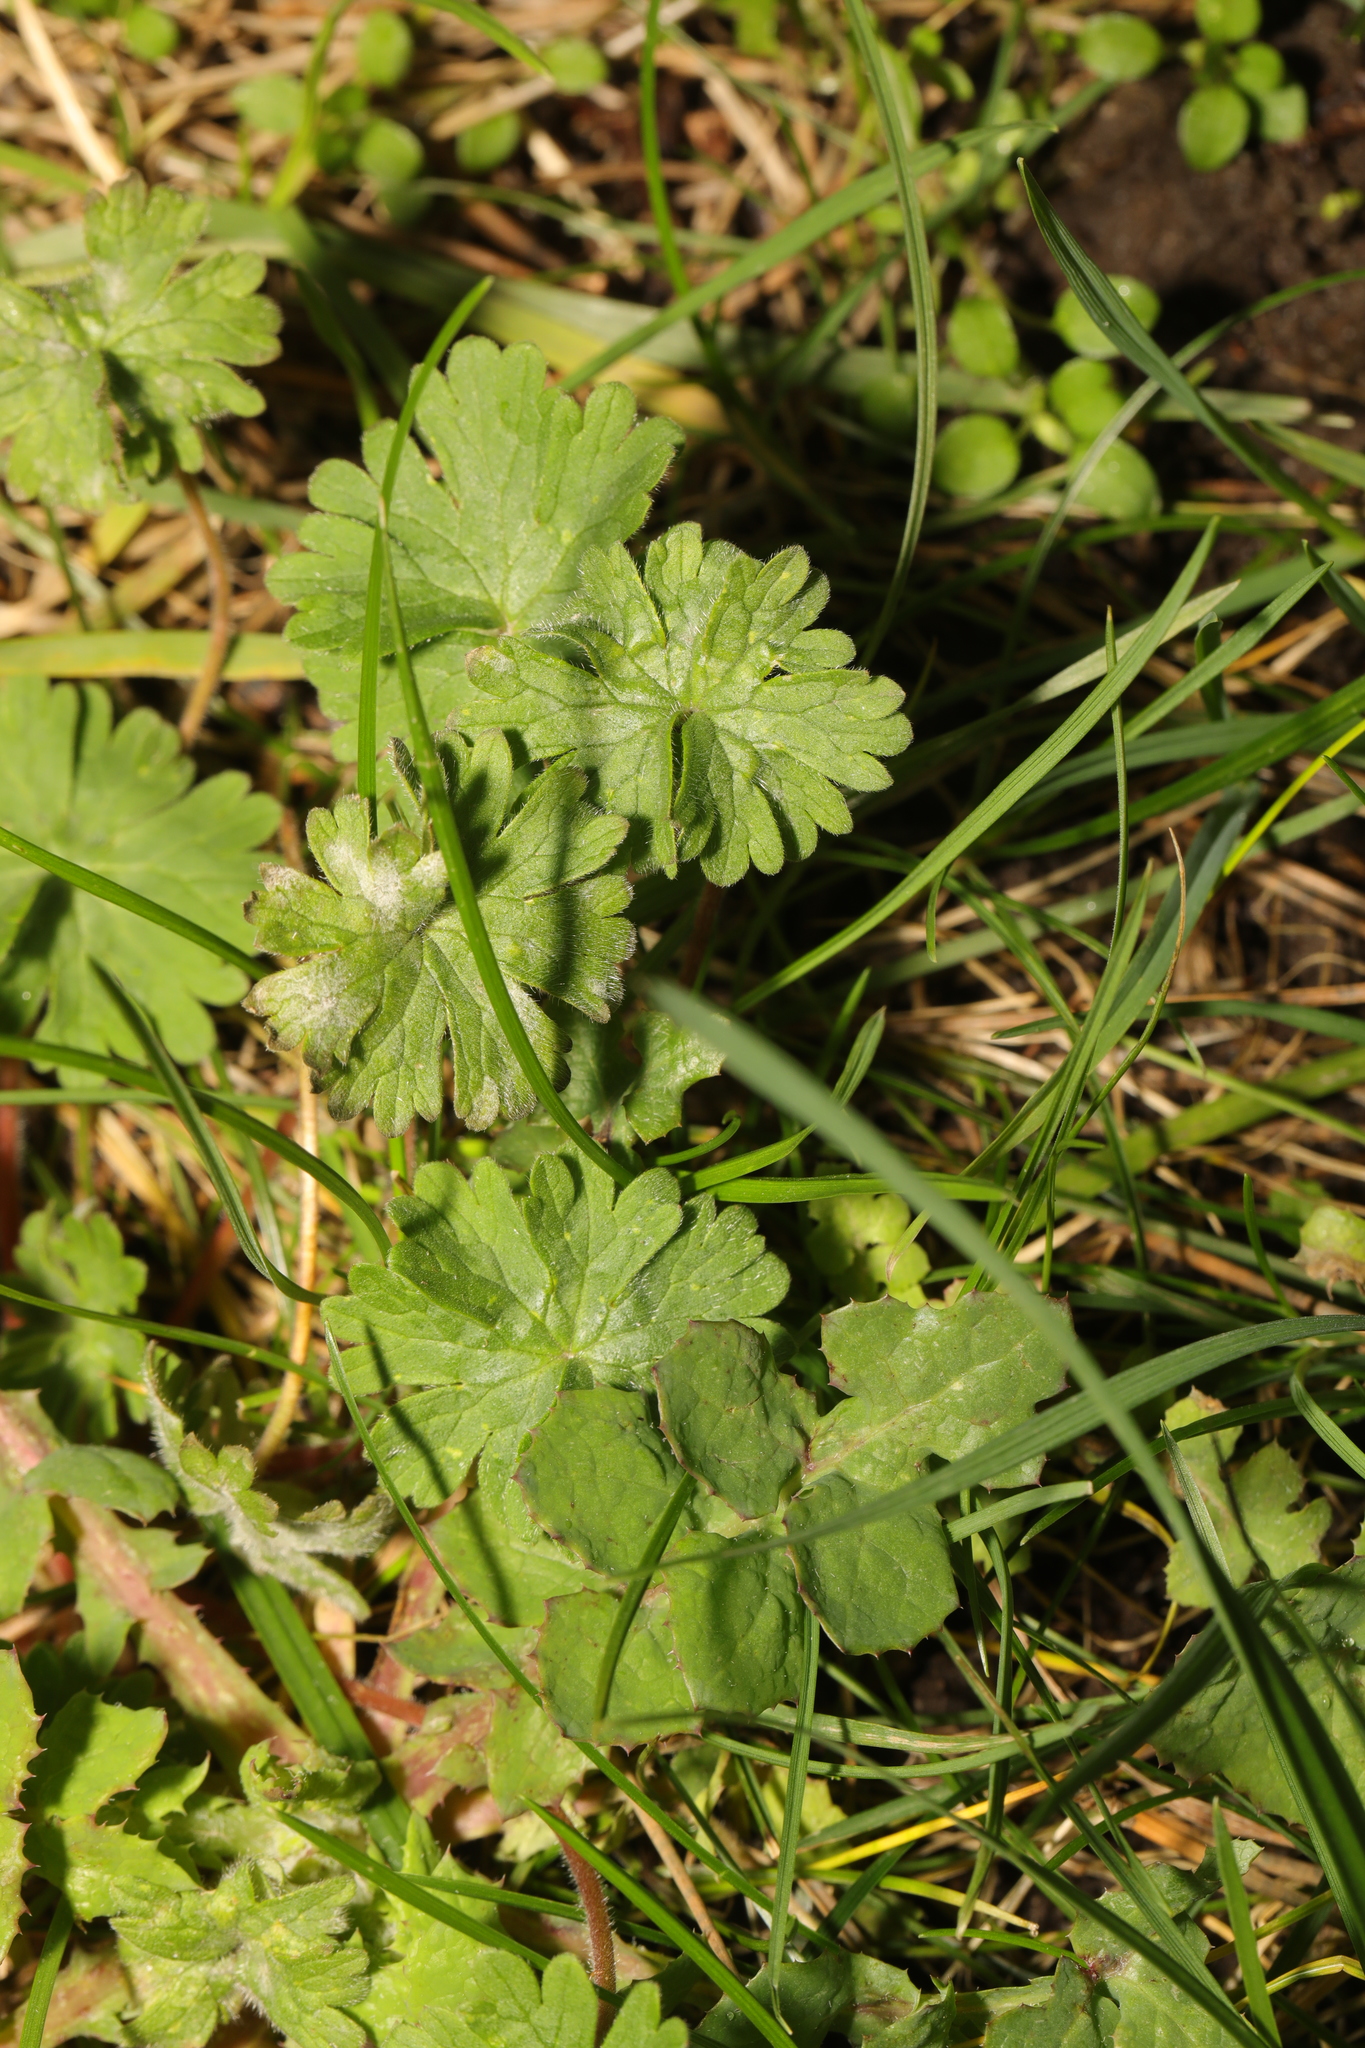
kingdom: Plantae
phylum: Tracheophyta
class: Magnoliopsida
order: Geraniales
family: Geraniaceae
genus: Geranium
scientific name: Geranium molle
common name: Dove's-foot crane's-bill
